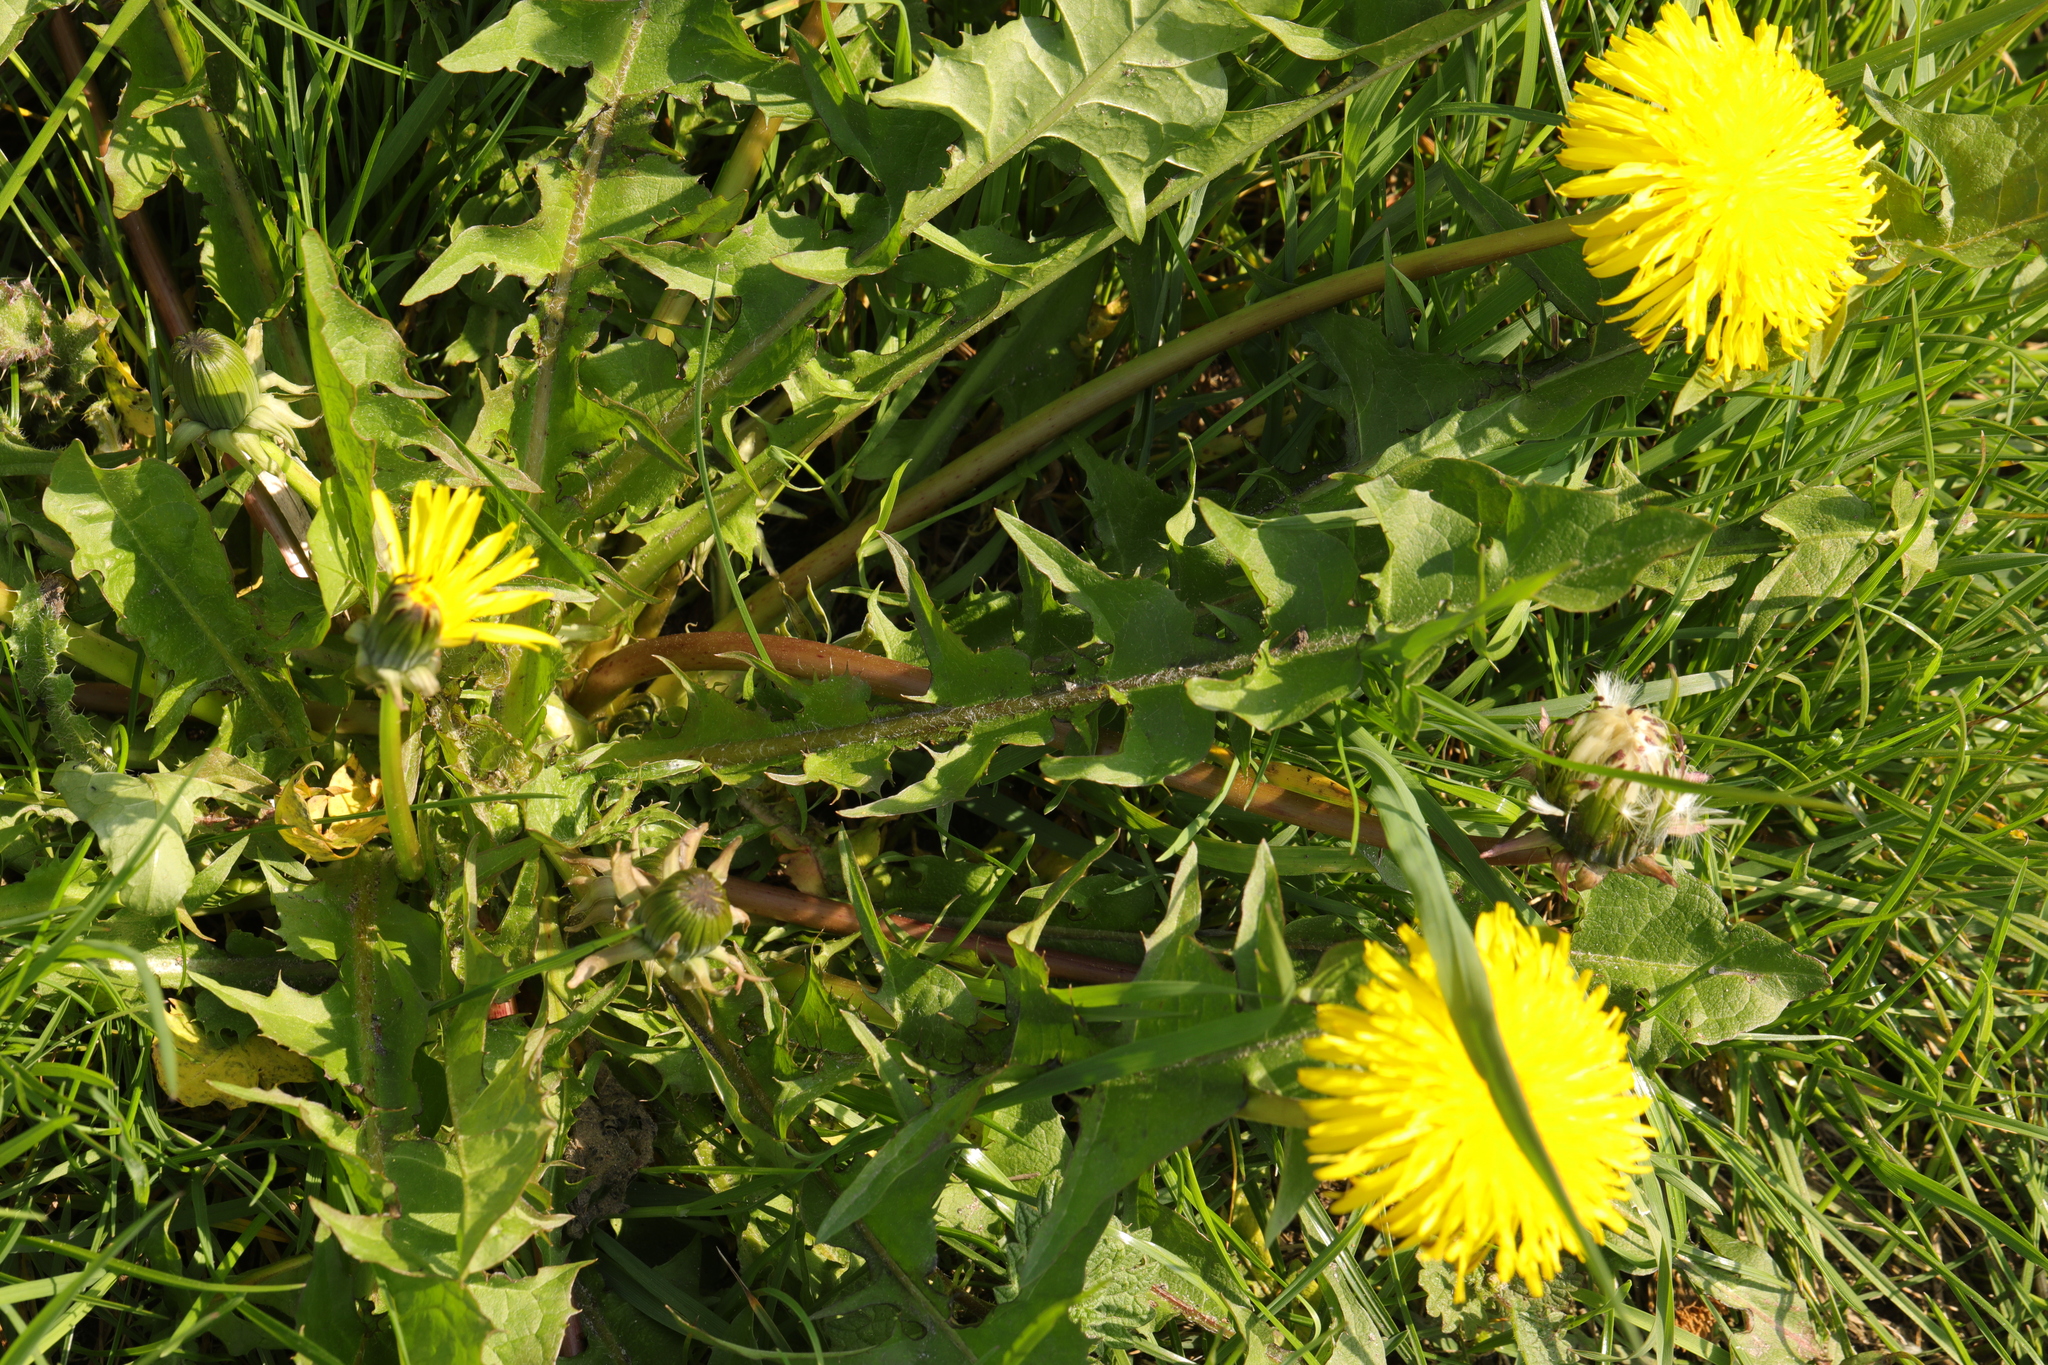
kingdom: Plantae
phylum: Tracheophyta
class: Magnoliopsida
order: Asterales
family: Asteraceae
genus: Taraxacum
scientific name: Taraxacum officinale
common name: Common dandelion
